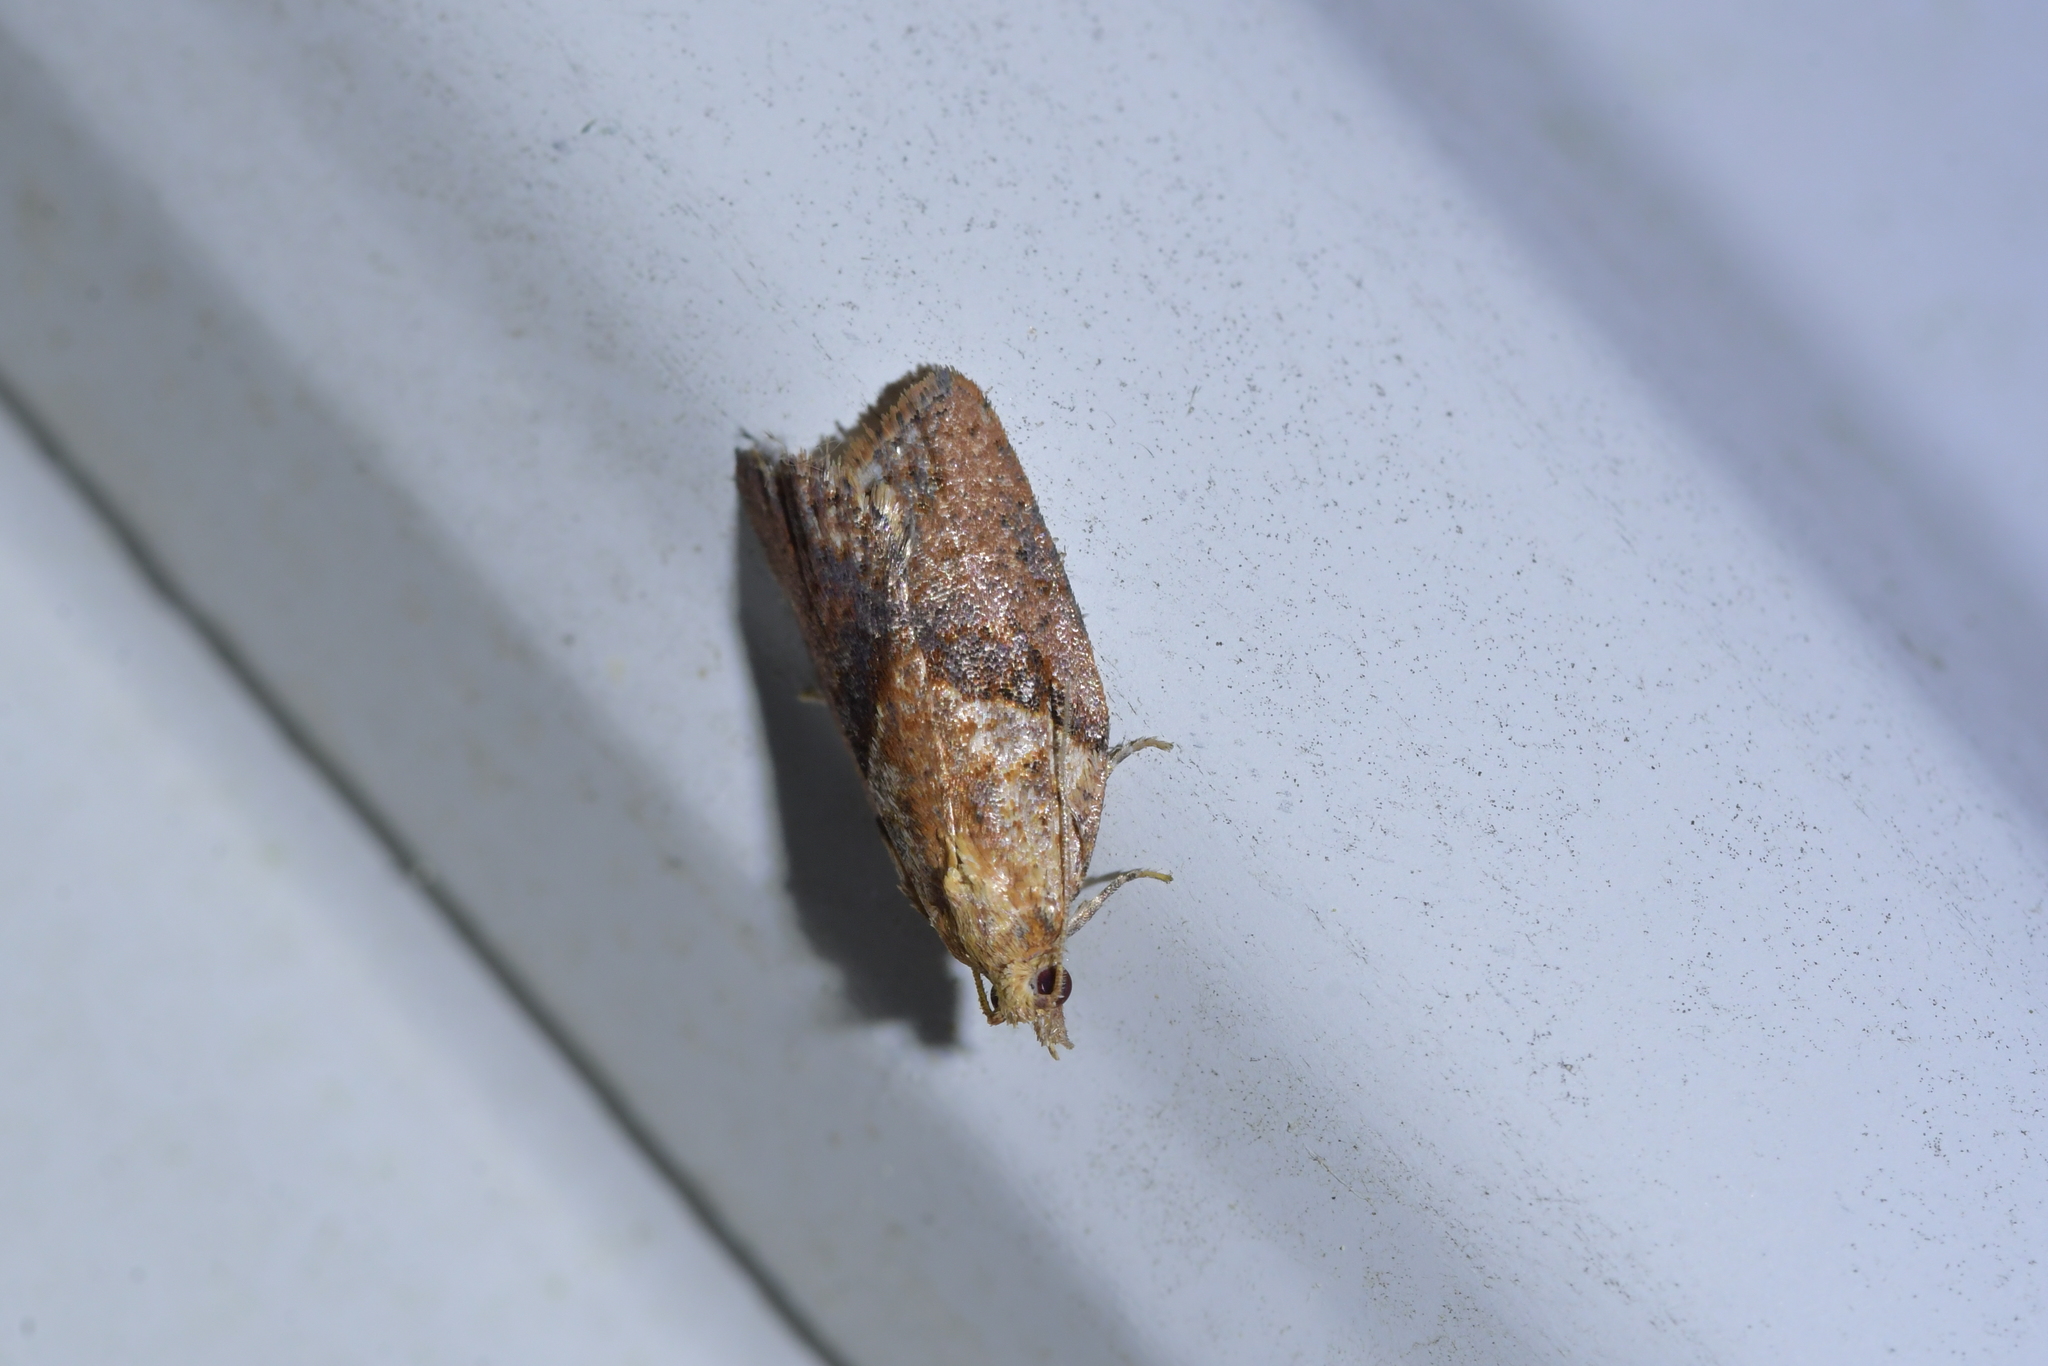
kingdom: Animalia
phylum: Arthropoda
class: Insecta
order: Lepidoptera
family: Tortricidae
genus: Epiphyas
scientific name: Epiphyas postvittana
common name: Light brown apple moth
